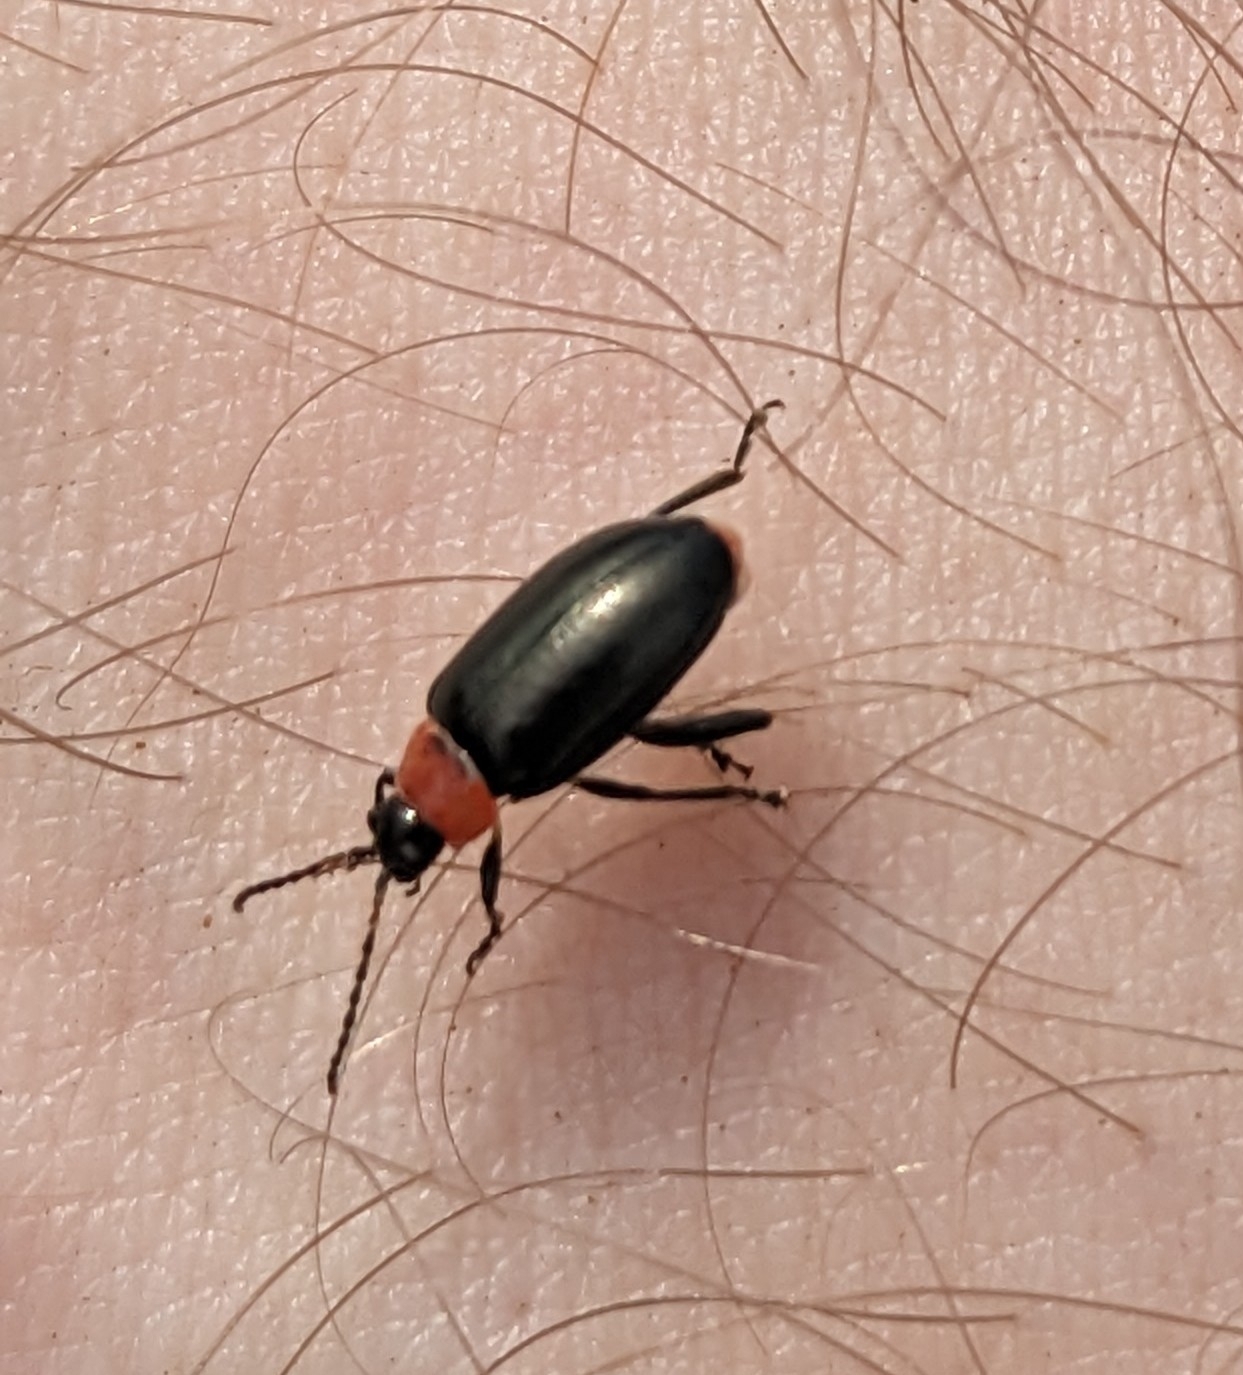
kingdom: Animalia
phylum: Arthropoda
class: Insecta
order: Coleoptera
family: Chrysomelidae
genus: Disonycha
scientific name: Disonycha xanthomelas
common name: Spinach flea beetle
